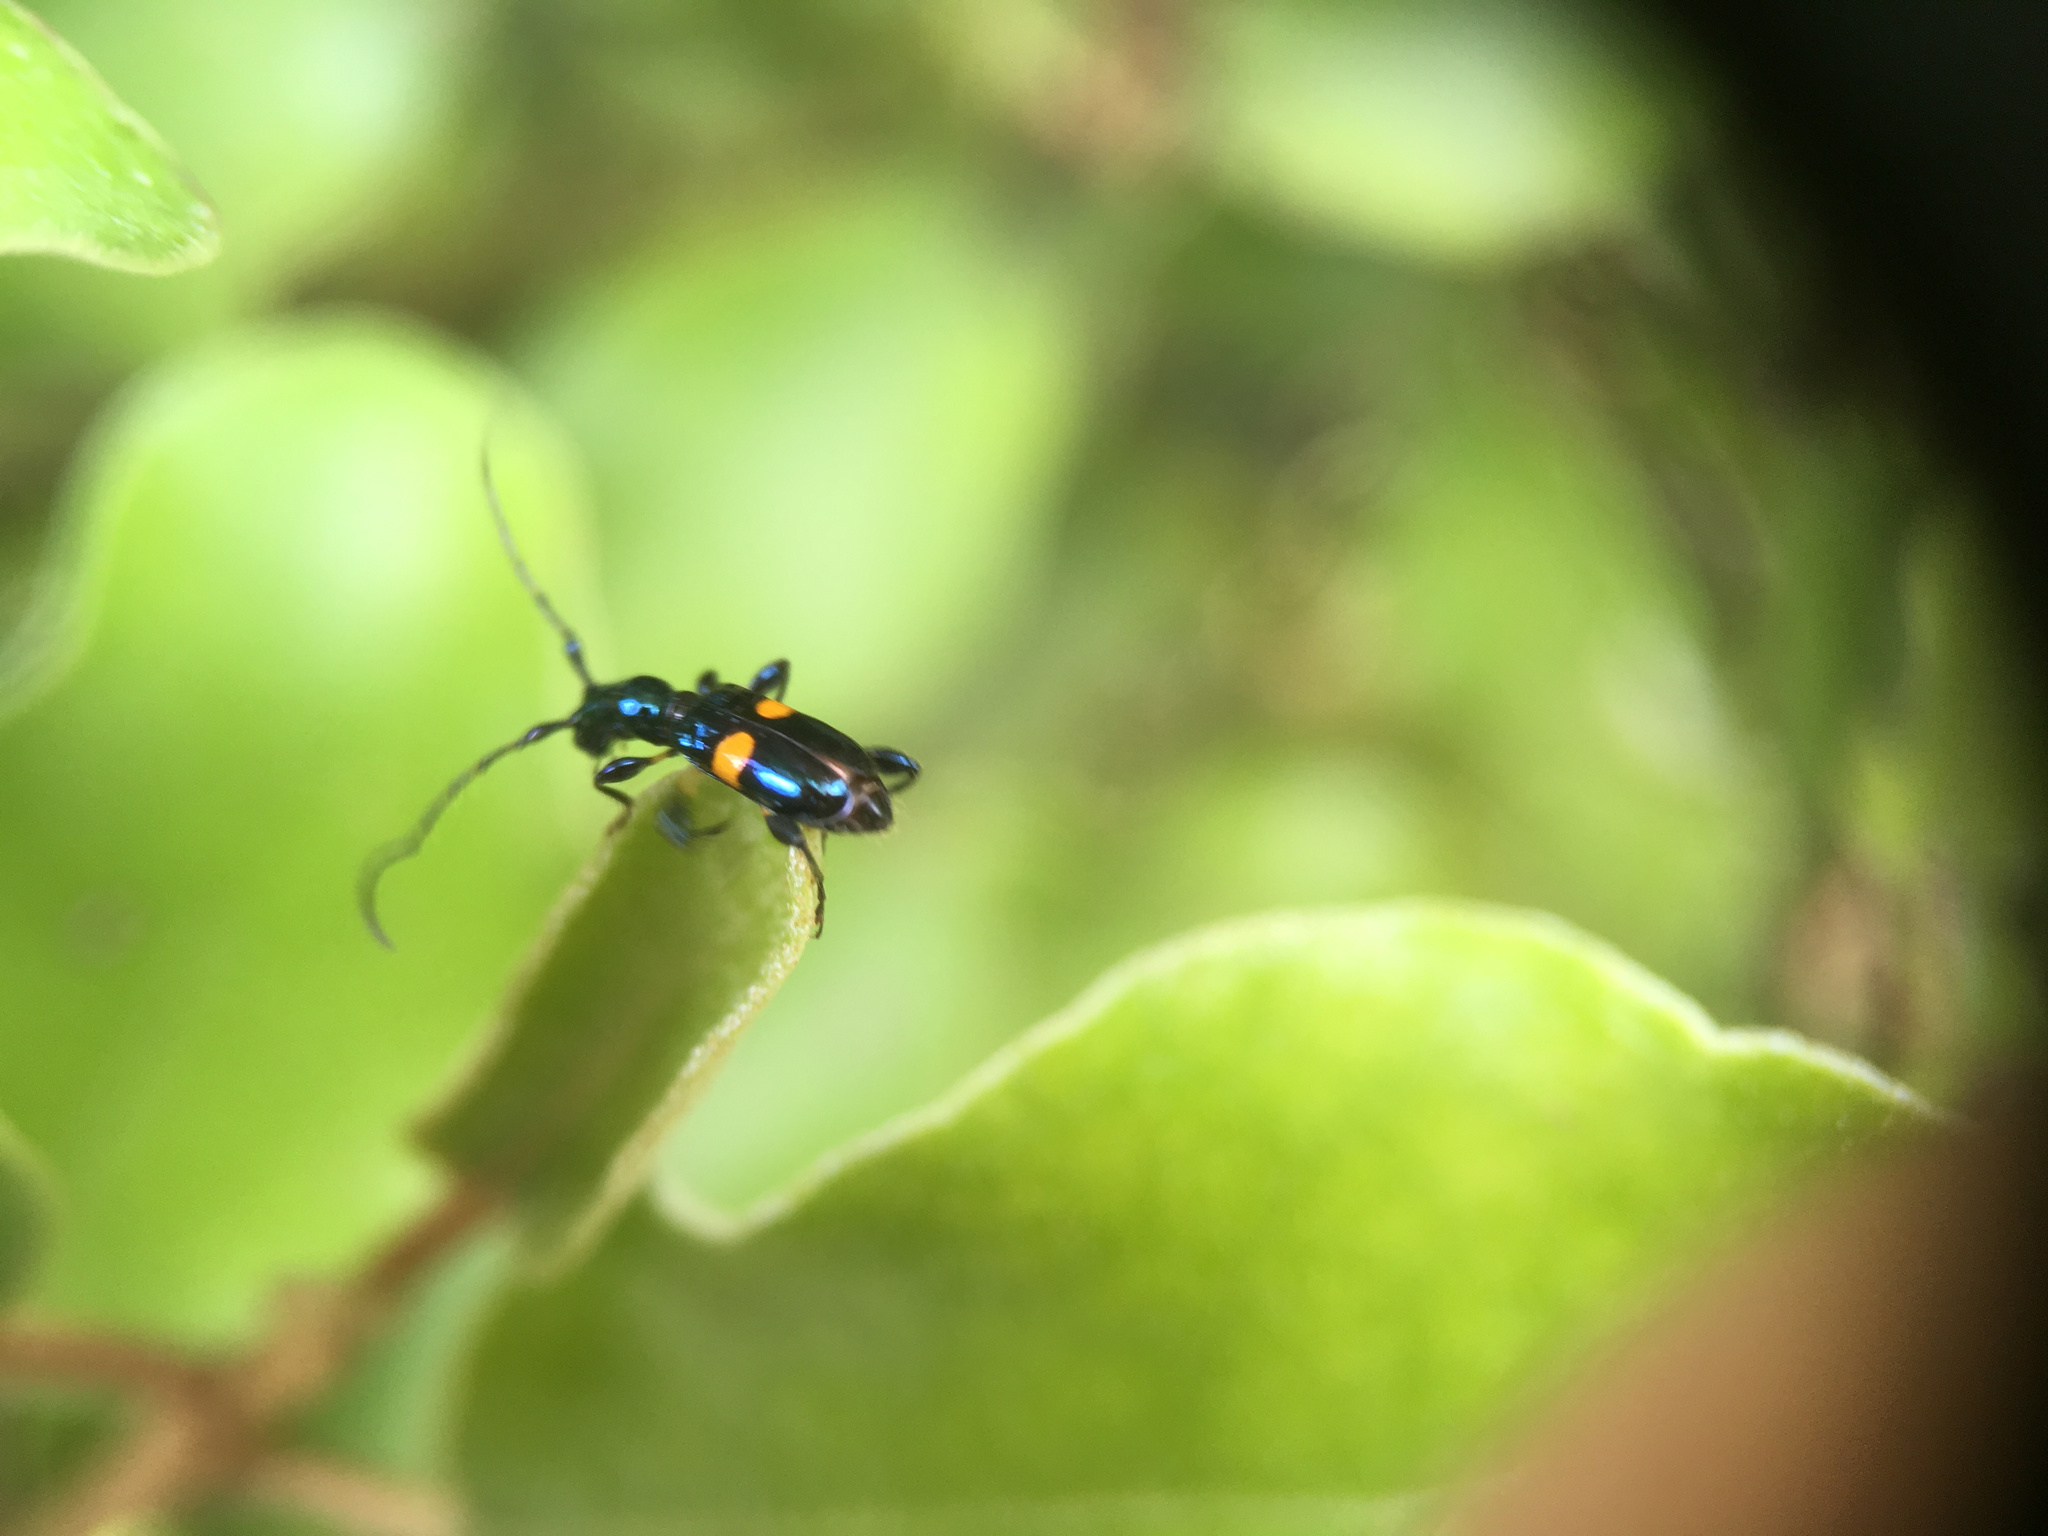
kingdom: Animalia
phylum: Arthropoda
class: Insecta
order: Coleoptera
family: Cerambycidae
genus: Zorion
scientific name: Zorion guttigerum
